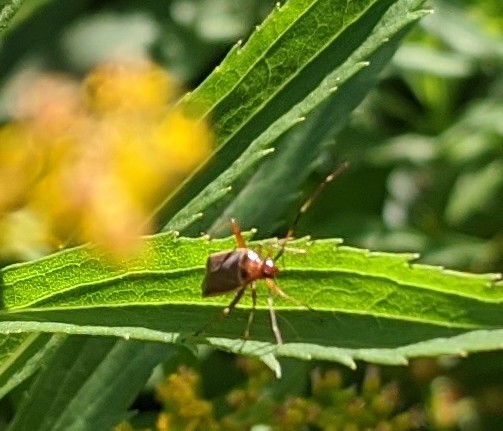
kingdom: Animalia
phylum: Arthropoda
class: Insecta
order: Hemiptera
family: Miridae
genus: Adelphocoris
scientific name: Adelphocoris rapidus
